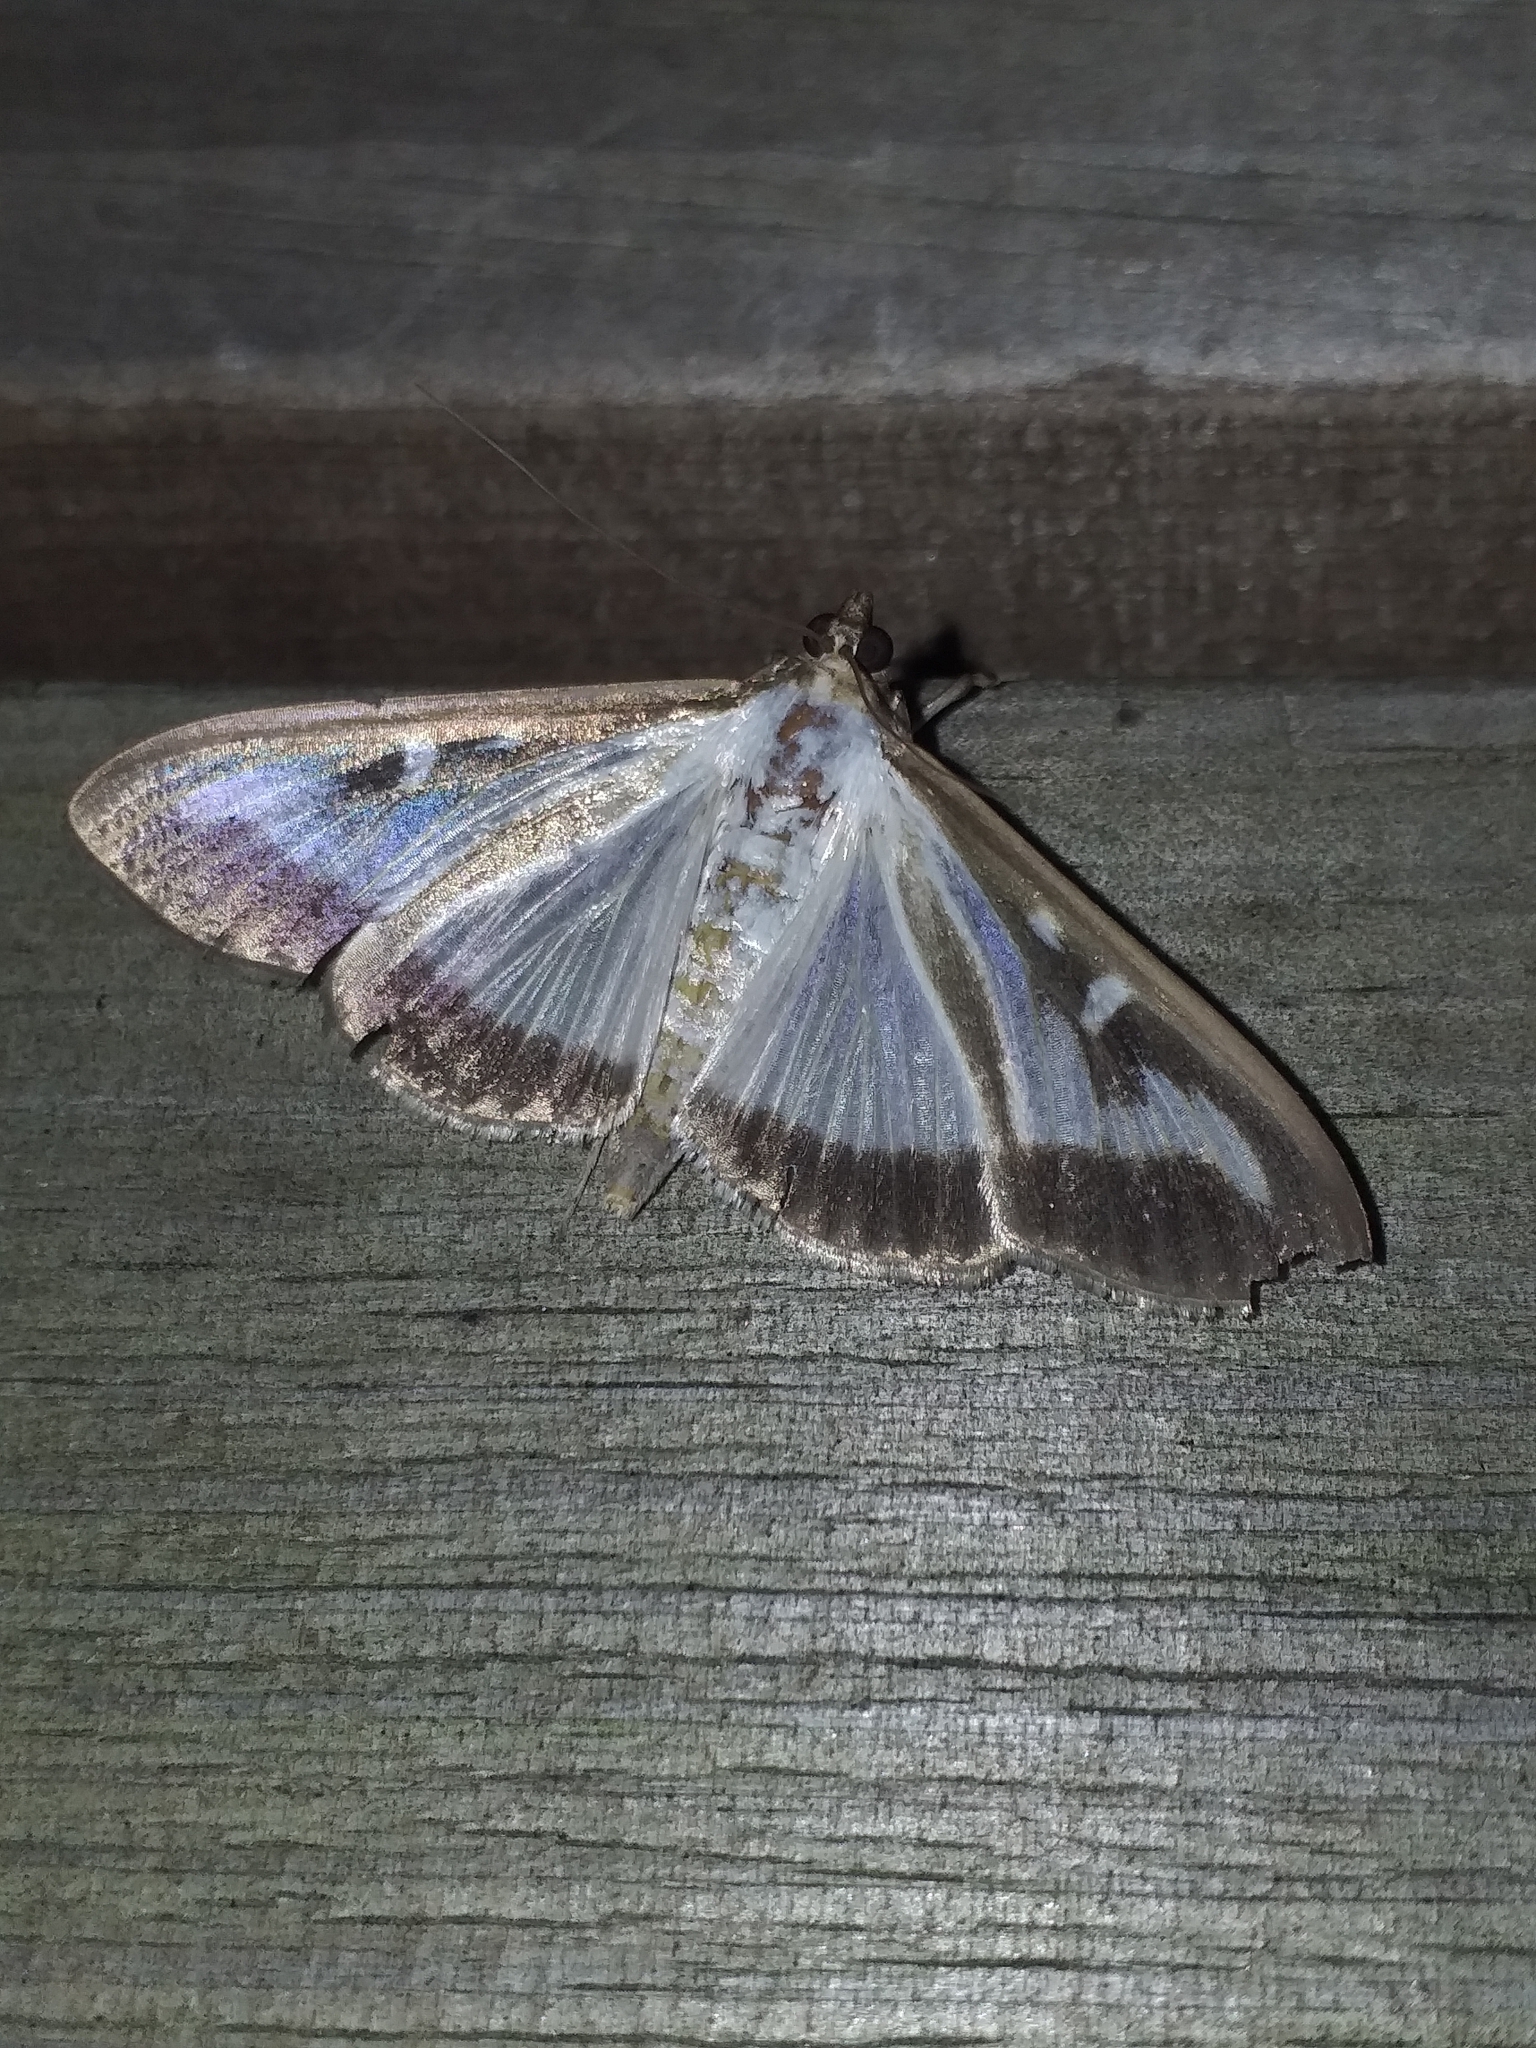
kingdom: Animalia
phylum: Arthropoda
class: Insecta
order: Lepidoptera
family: Crambidae
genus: Cydalima
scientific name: Cydalima perspectalis
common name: Box tree moth
